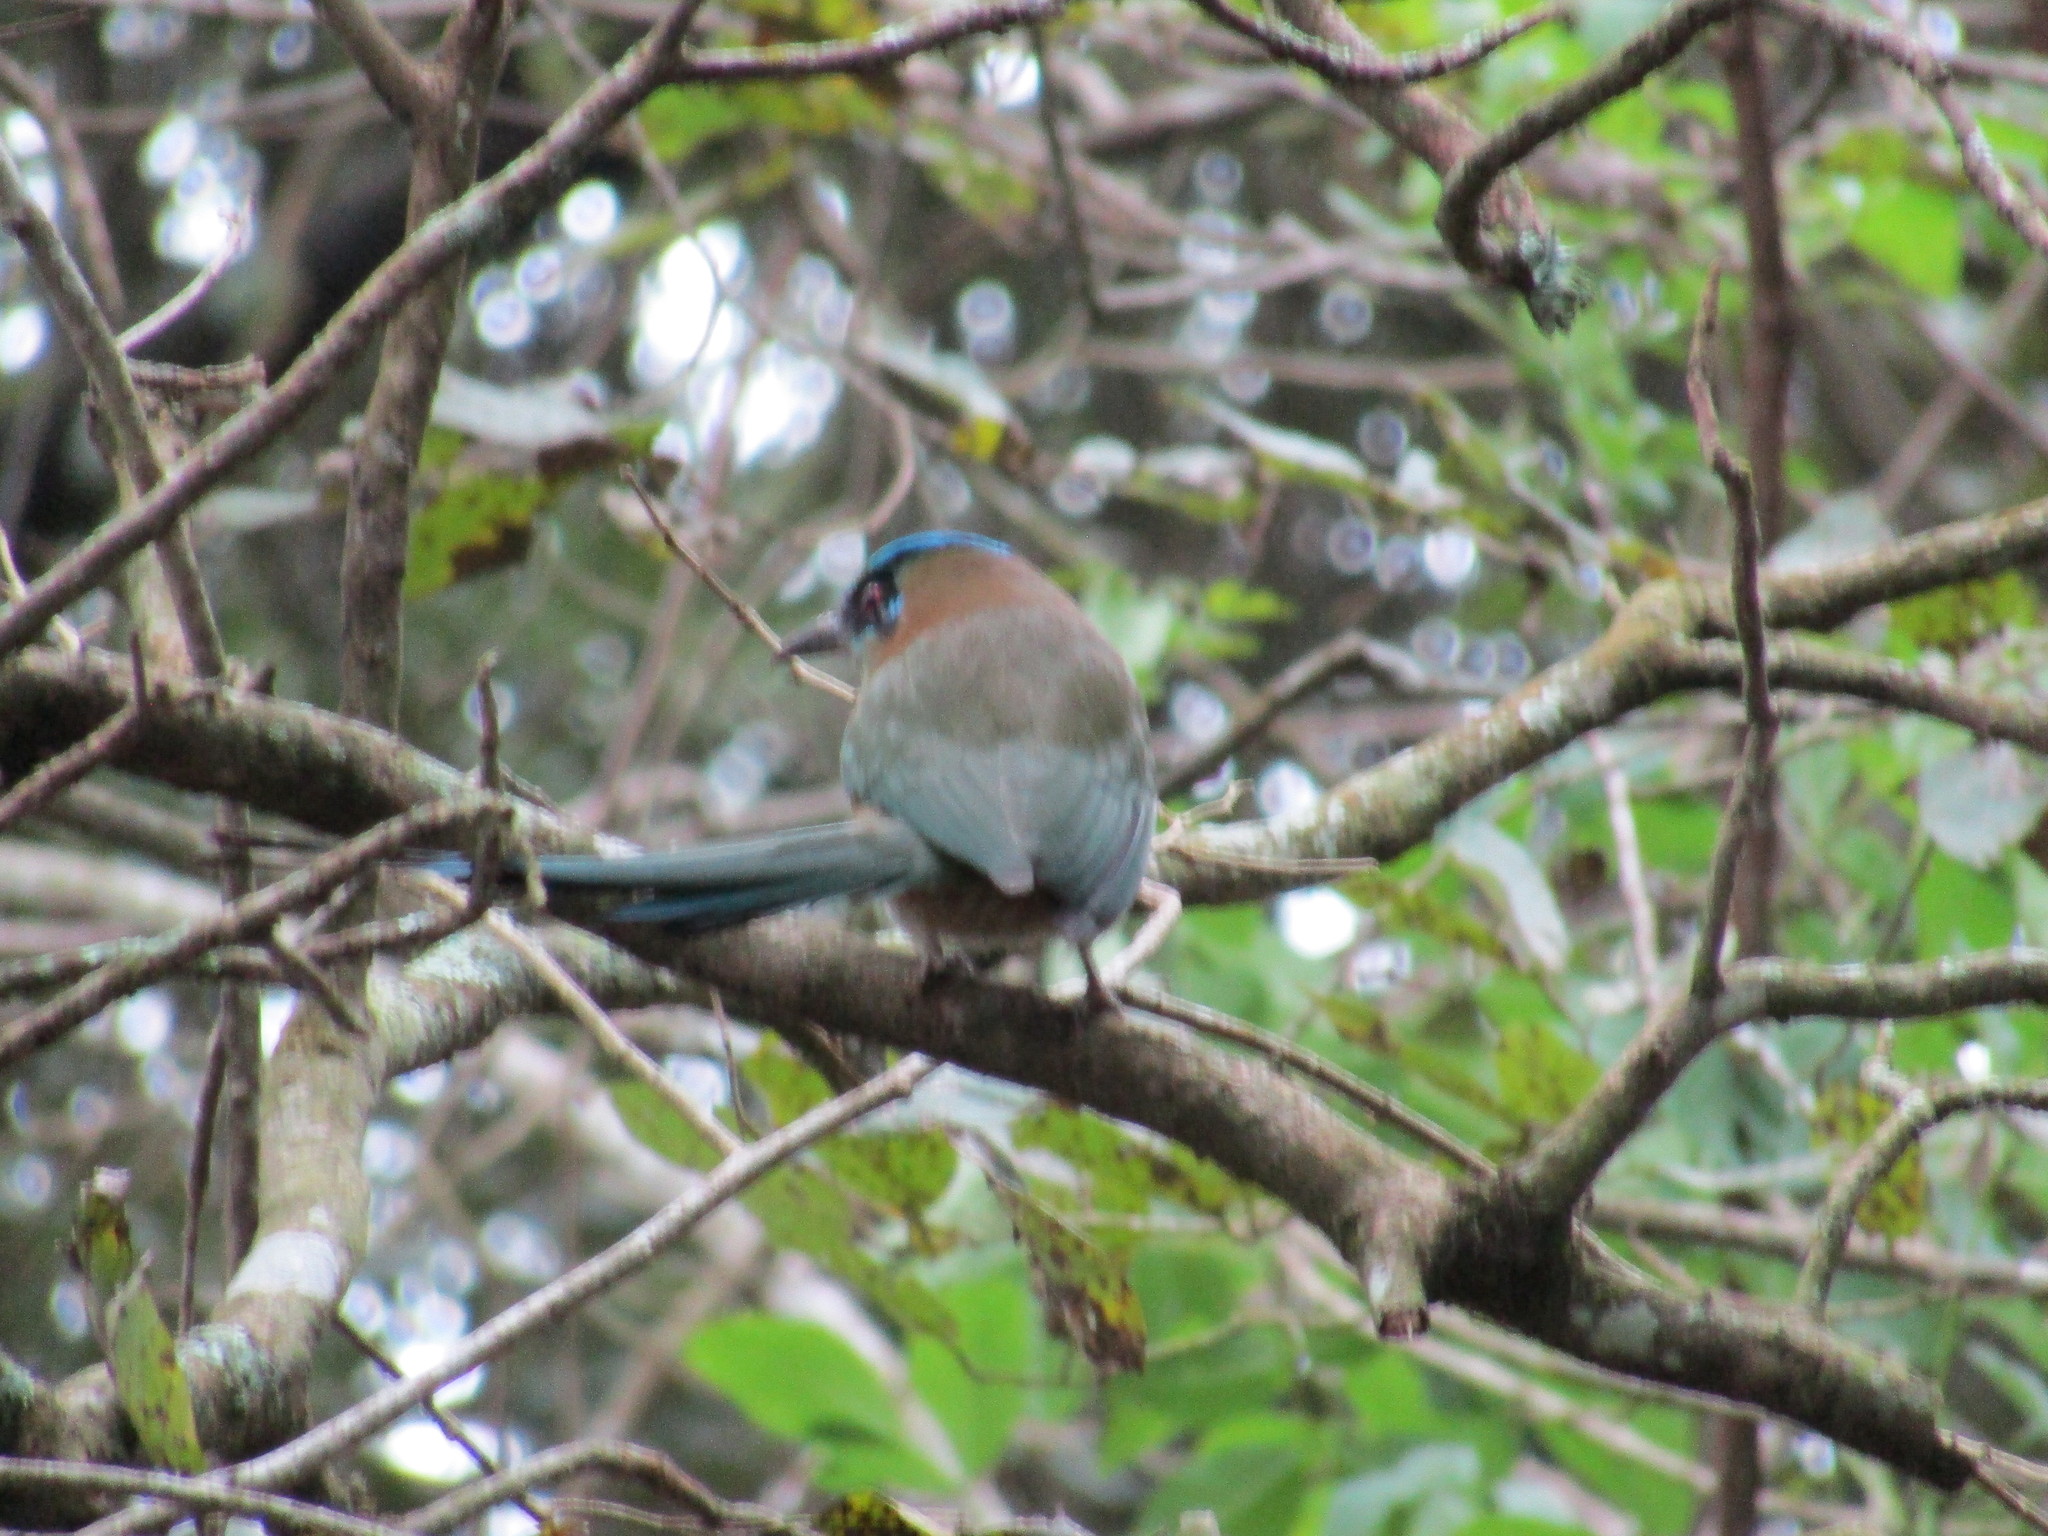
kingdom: Animalia
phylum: Chordata
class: Aves
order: Coraciiformes
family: Momotidae
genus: Momotus
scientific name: Momotus coeruliceps
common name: Blue-capped motmot
